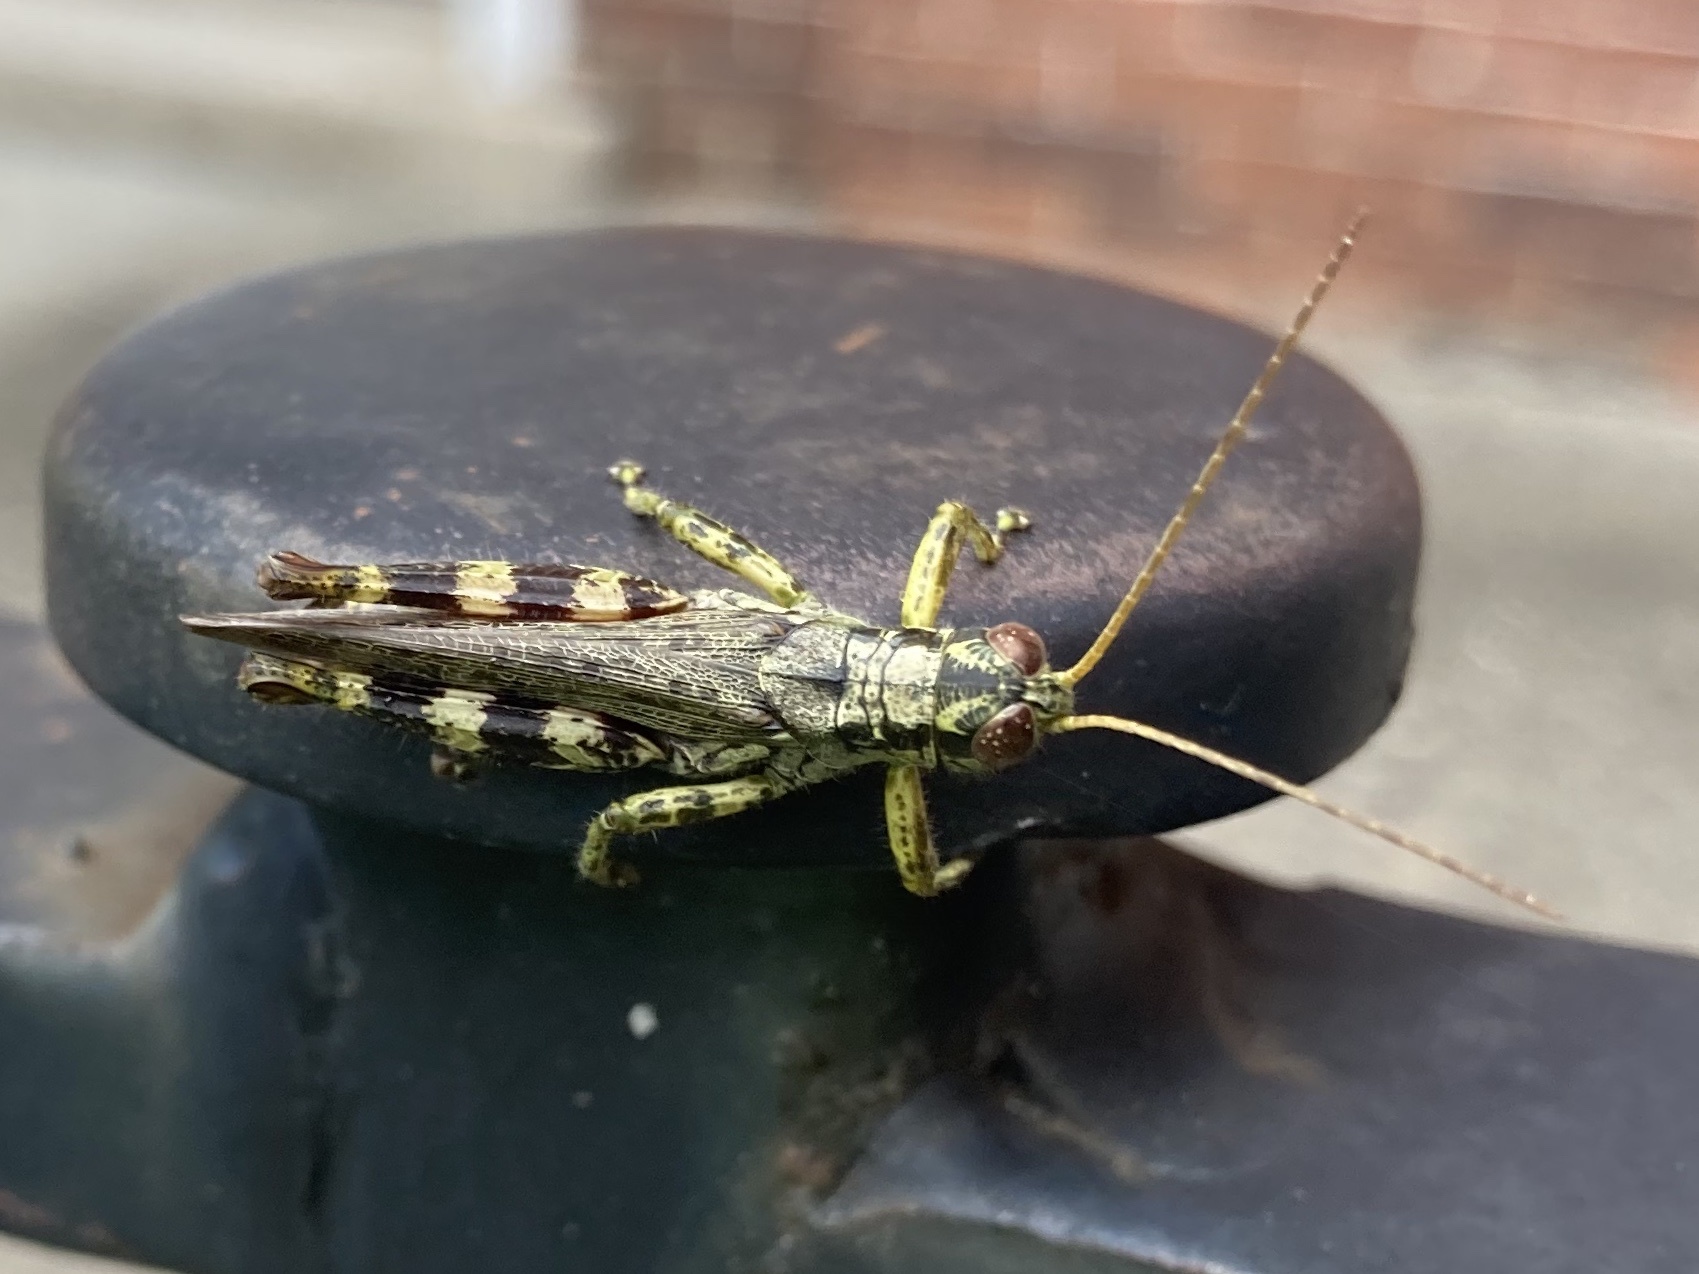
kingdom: Animalia
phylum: Arthropoda
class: Insecta
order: Orthoptera
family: Acrididae
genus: Melanoplus
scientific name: Melanoplus punctulatus
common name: Pine-tree spur-throat grasshopper
